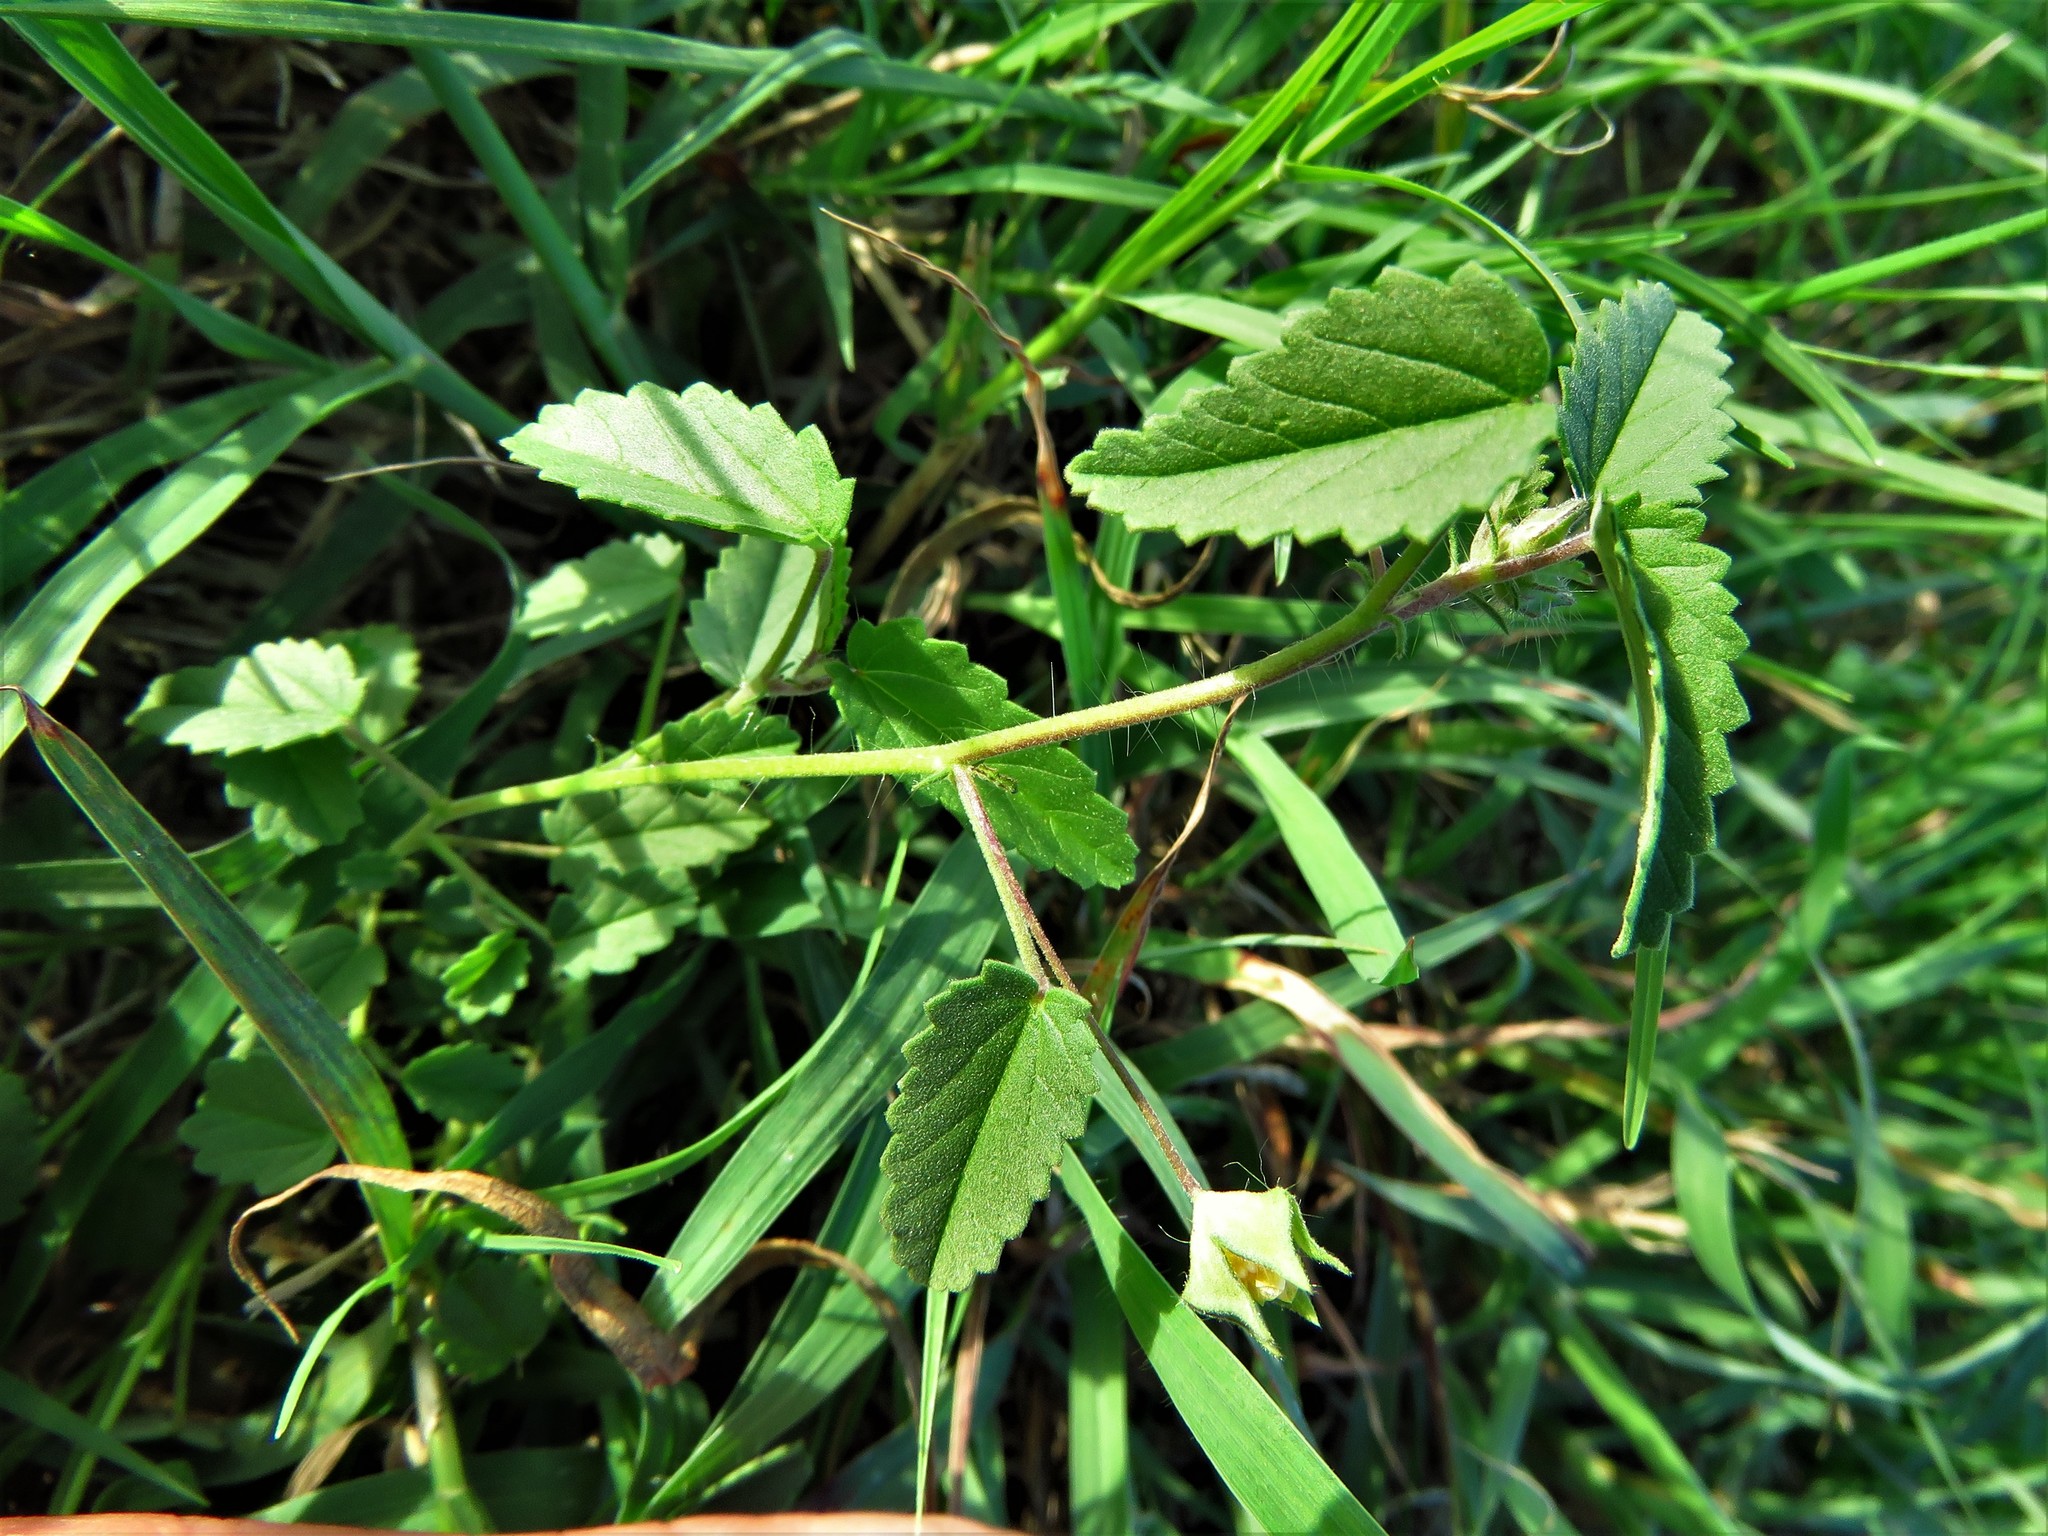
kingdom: Plantae
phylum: Tracheophyta
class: Magnoliopsida
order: Malvales
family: Malvaceae
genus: Sida
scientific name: Sida abutilifolia
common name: Spreading fanpetals
